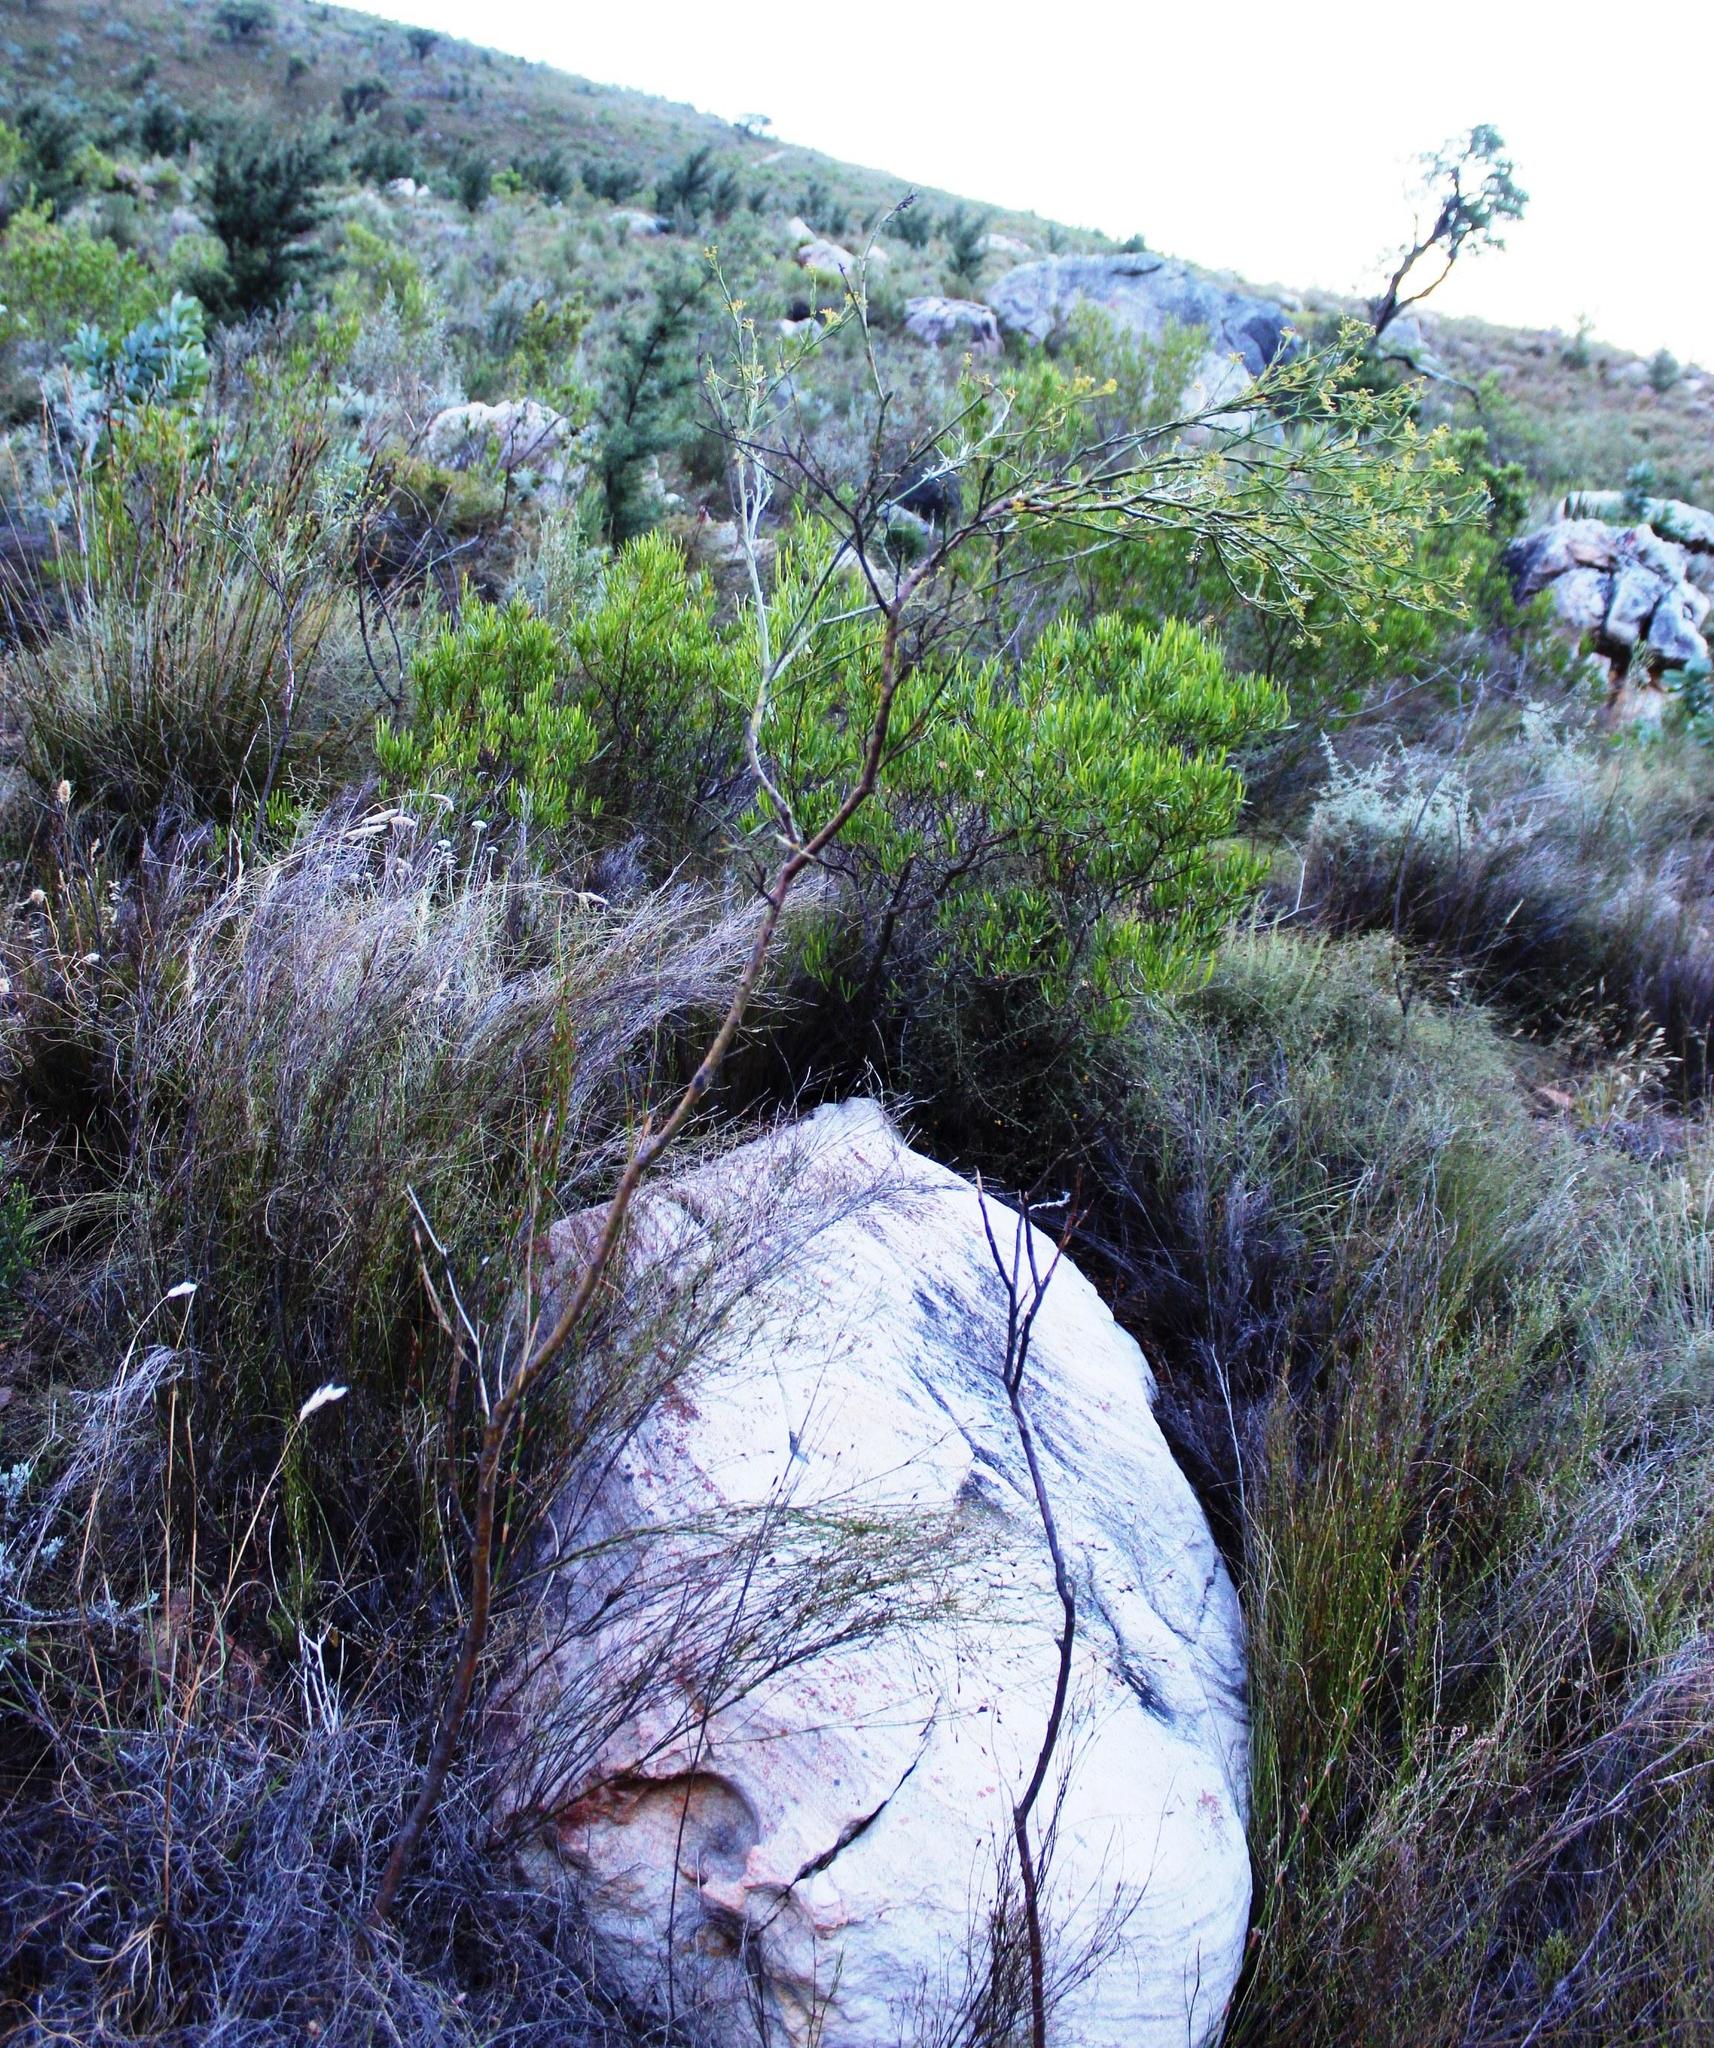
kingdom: Plantae
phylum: Tracheophyta
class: Magnoliopsida
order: Santalales
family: Thesiaceae
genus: Thesium
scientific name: Thesium strictum
